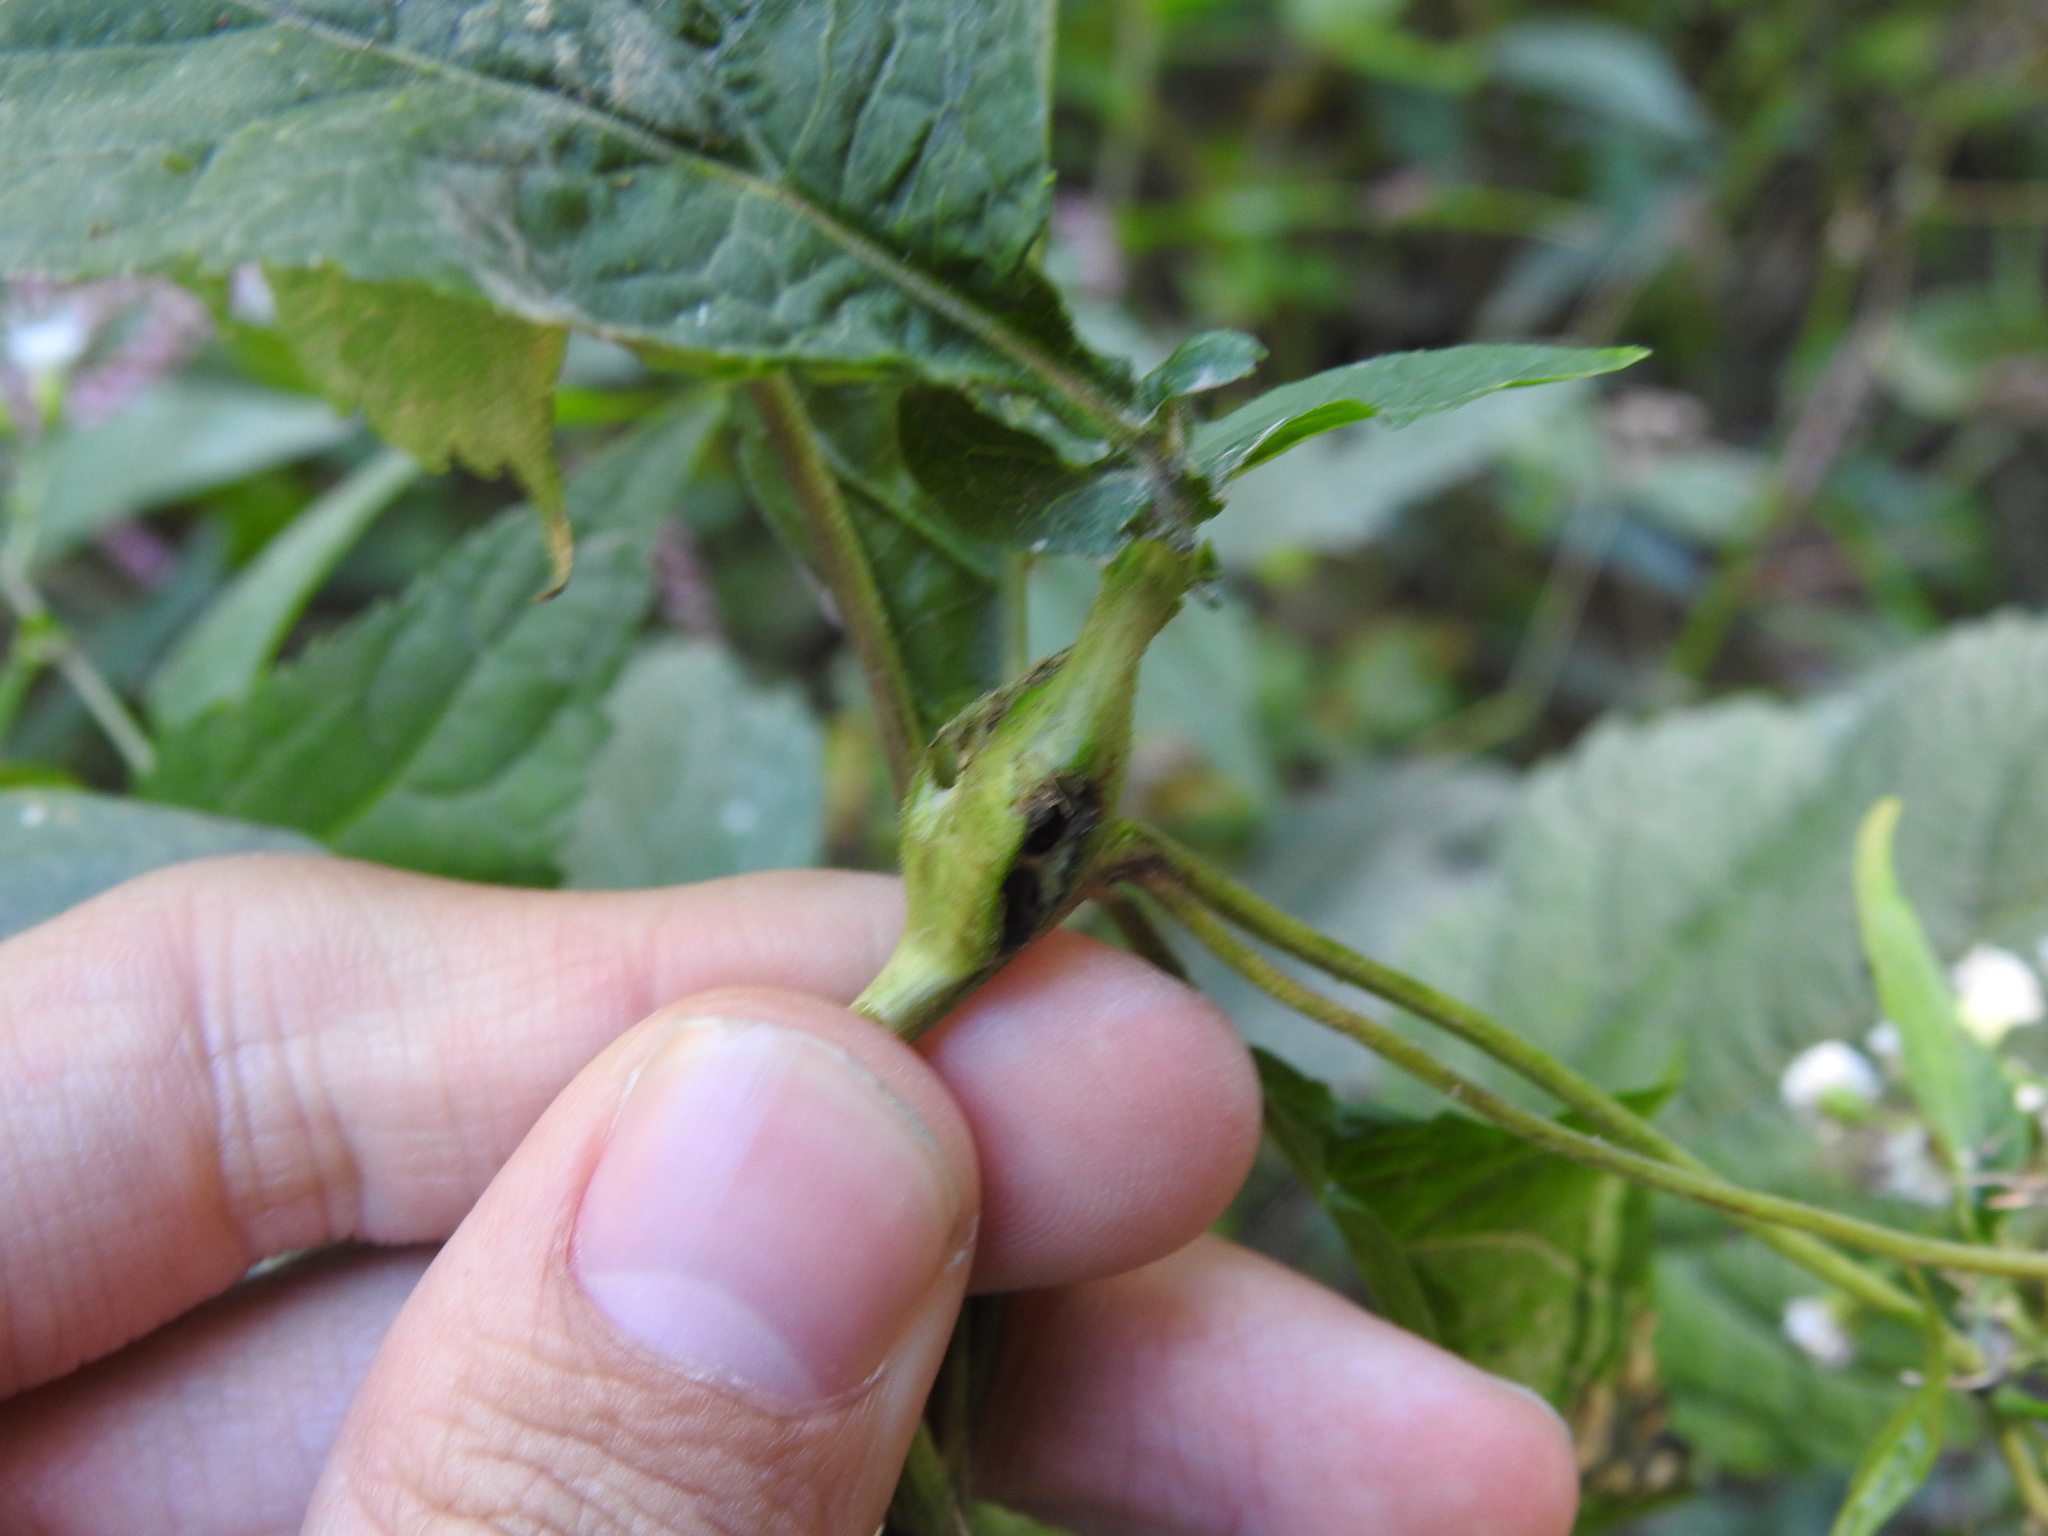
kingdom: Animalia
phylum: Arthropoda
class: Insecta
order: Diptera
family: Cecidomyiidae
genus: Asphondylia
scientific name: Asphondylia eupatorii
